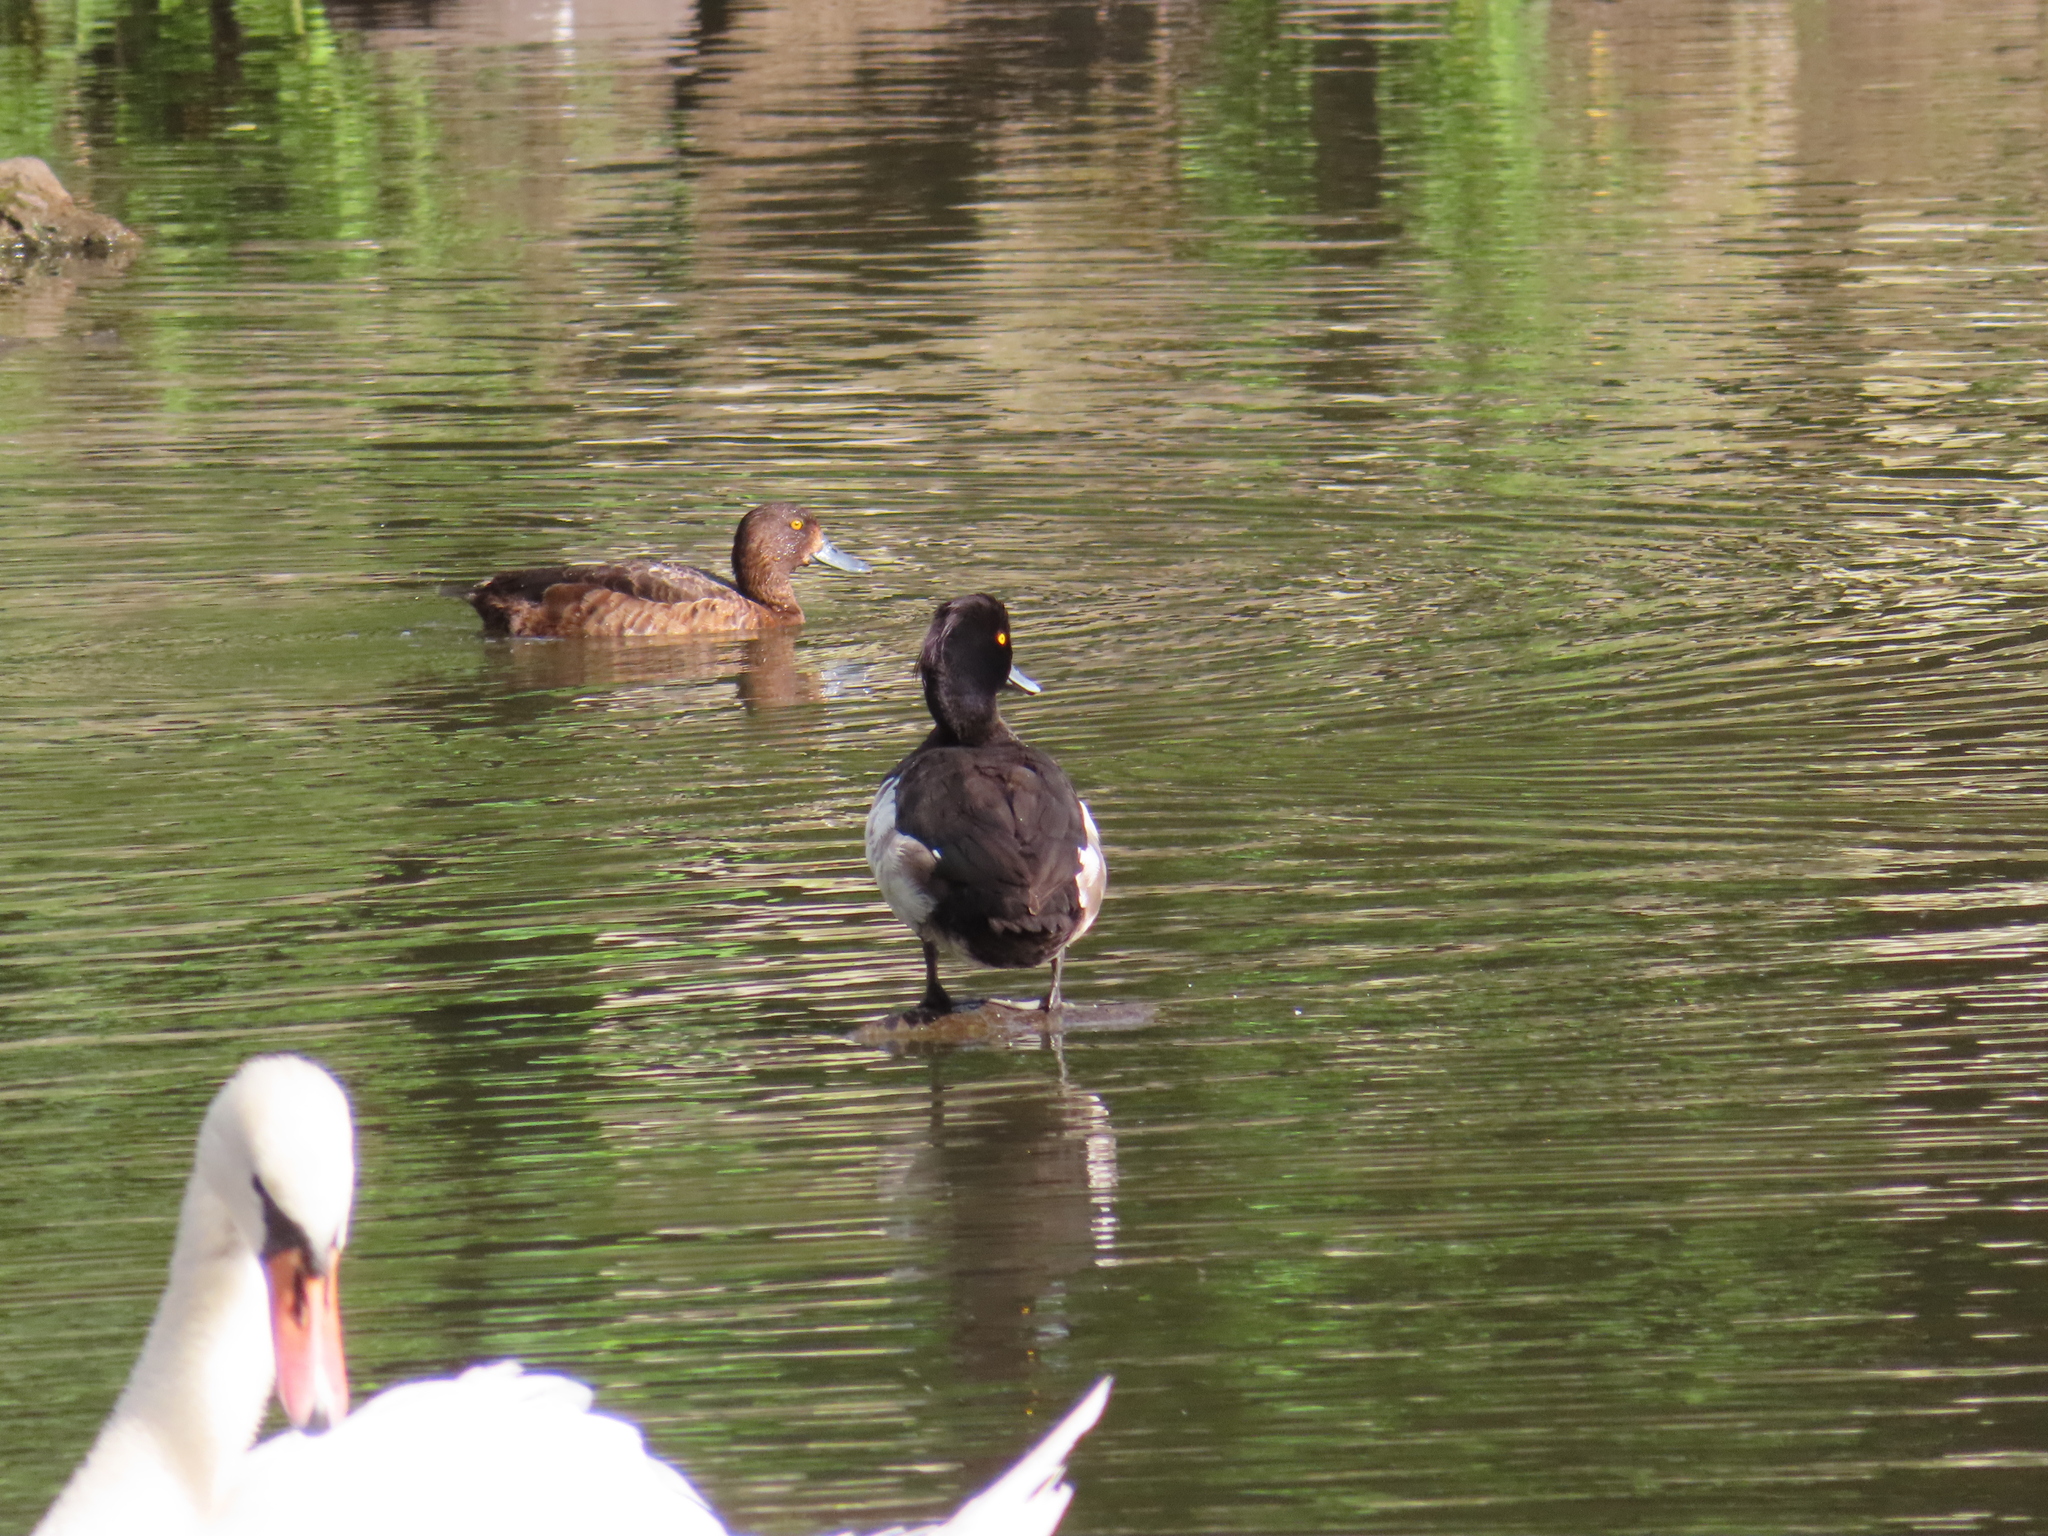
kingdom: Animalia
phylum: Chordata
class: Aves
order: Anseriformes
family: Anatidae
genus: Aythya
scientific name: Aythya fuligula
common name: Tufted duck
